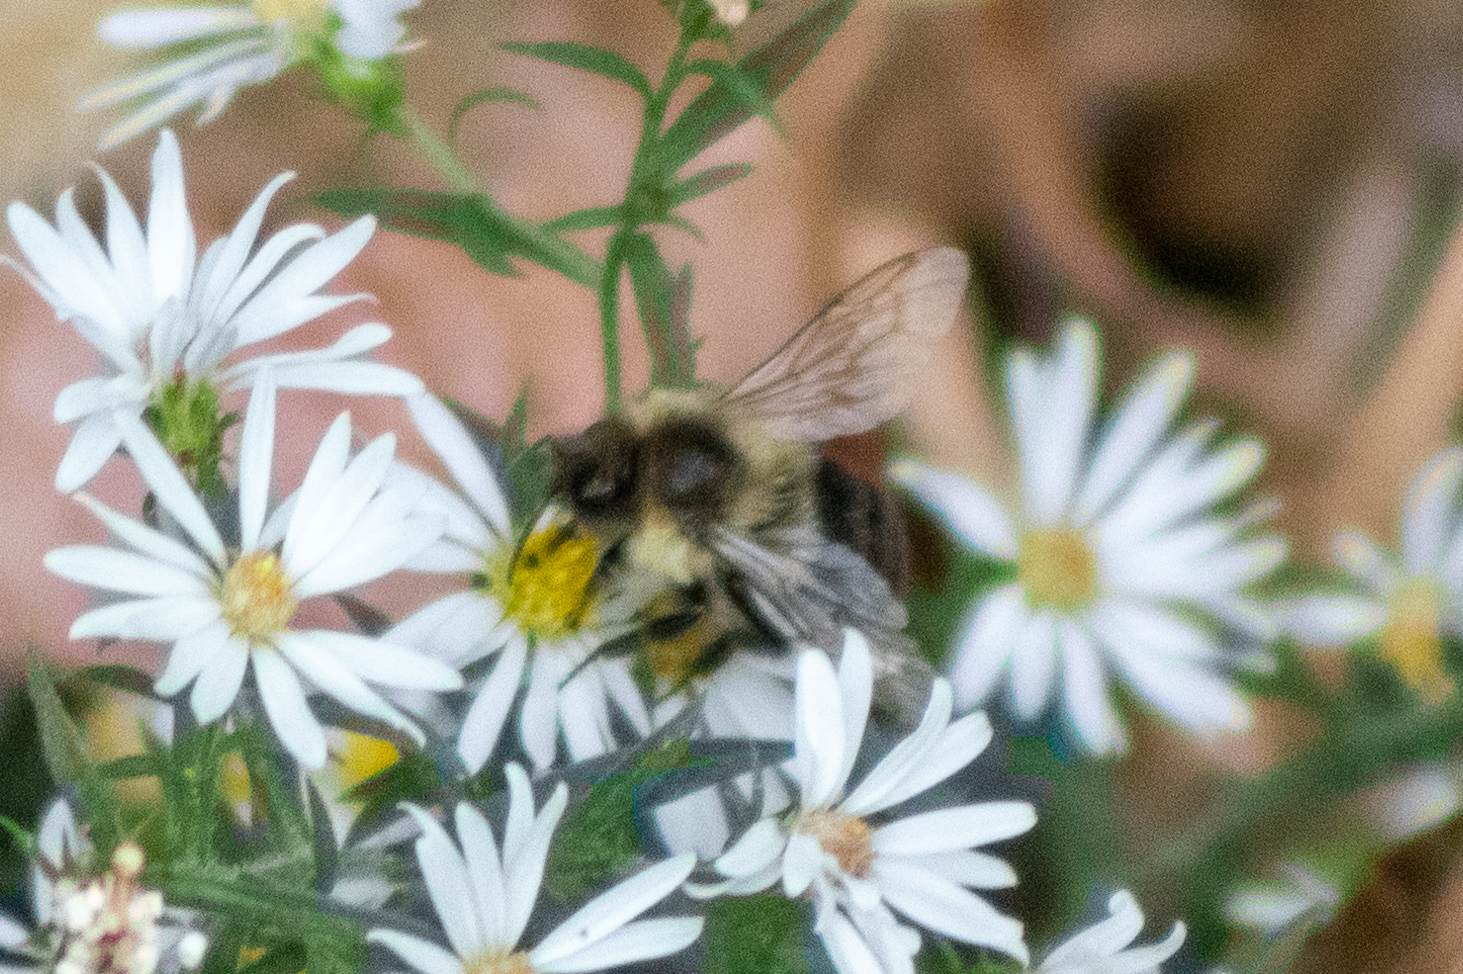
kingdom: Animalia
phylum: Arthropoda
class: Insecta
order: Hymenoptera
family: Apidae
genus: Bombus
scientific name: Bombus impatiens
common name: Common eastern bumble bee
